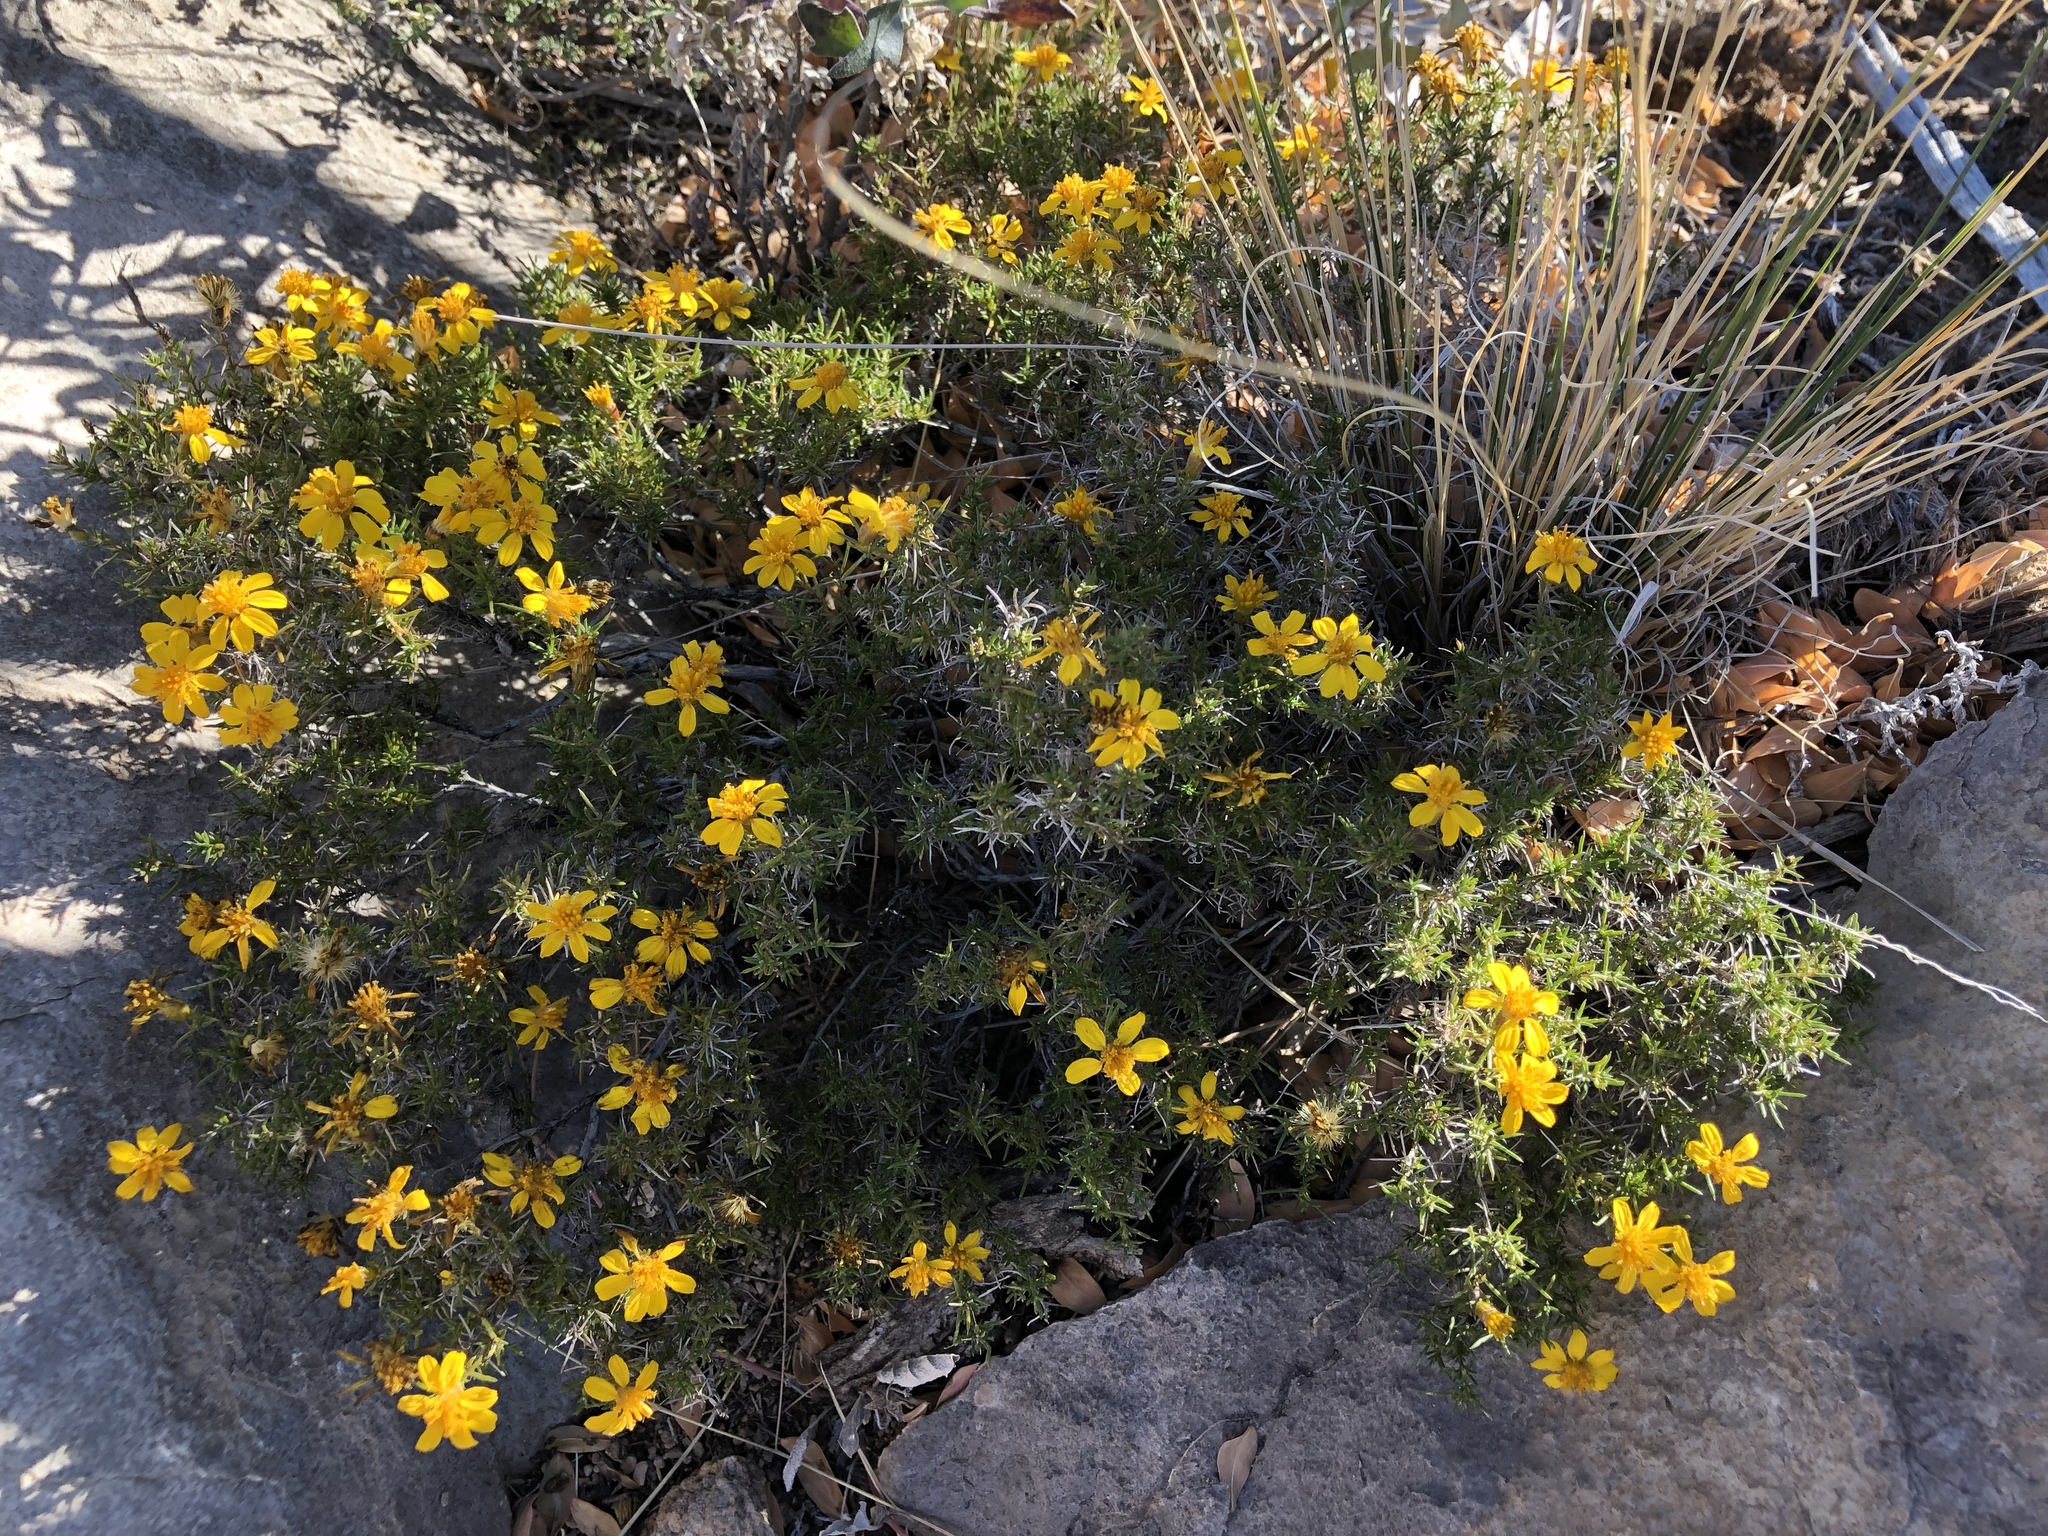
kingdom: Plantae
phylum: Tracheophyta
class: Magnoliopsida
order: Asterales
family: Asteraceae
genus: Thymophylla
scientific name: Thymophylla acerosa
